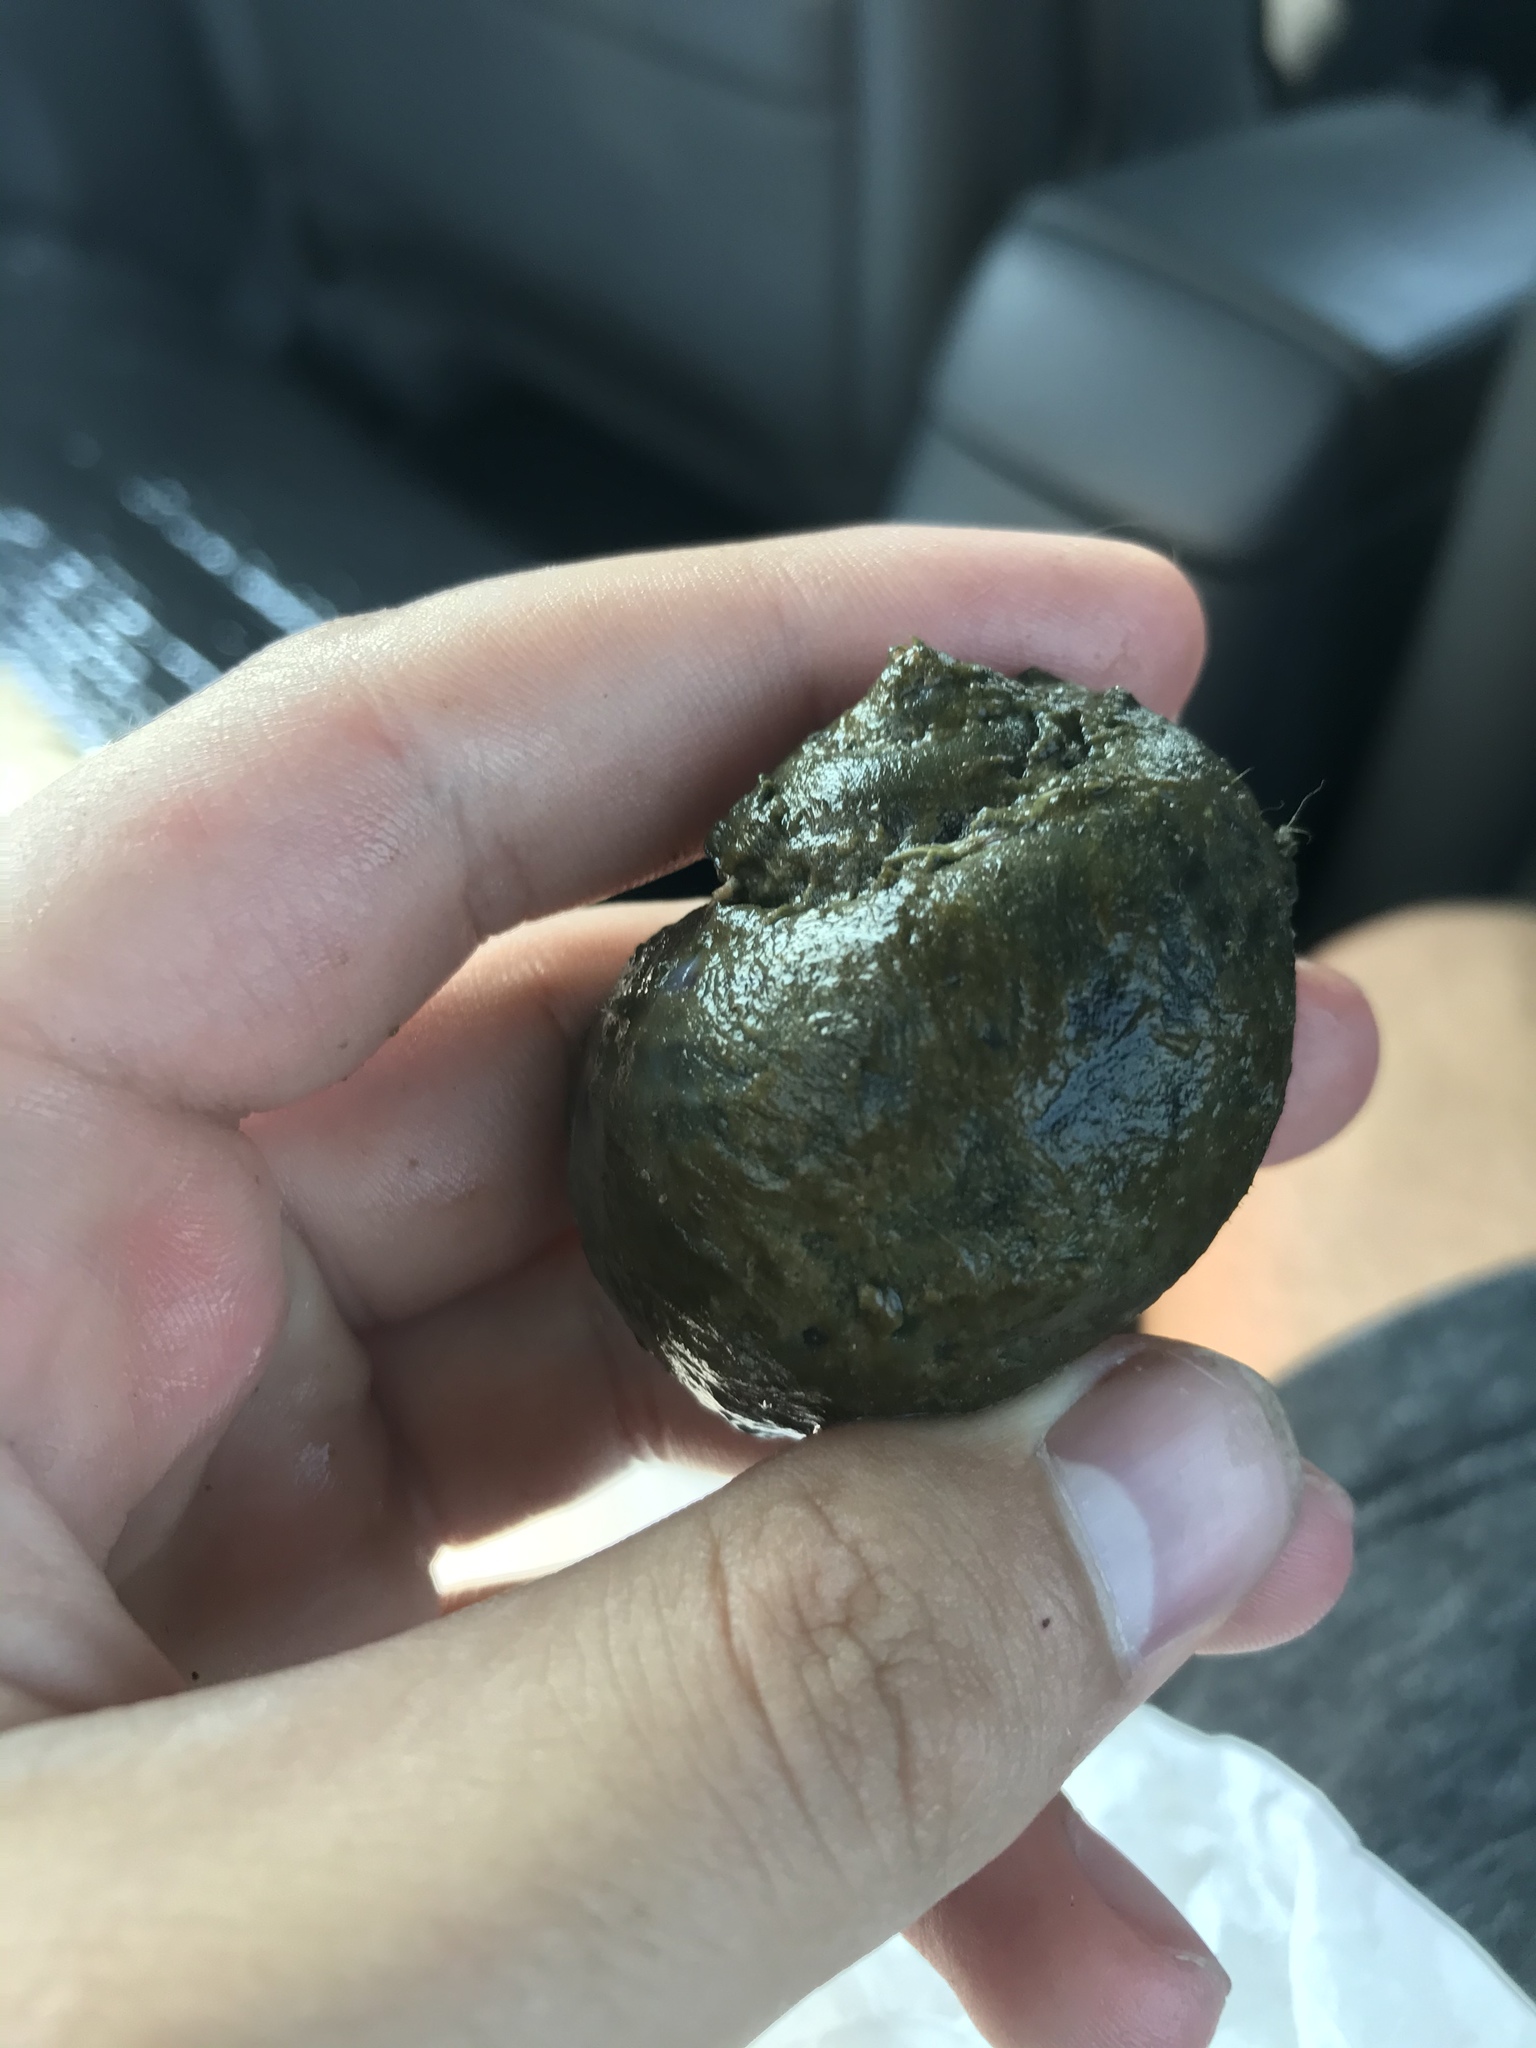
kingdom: Animalia
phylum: Mollusca
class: Gastropoda
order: Architaenioglossa
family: Ampullariidae
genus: Pomacea
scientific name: Pomacea canaliculata
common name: Channeled applesnail
